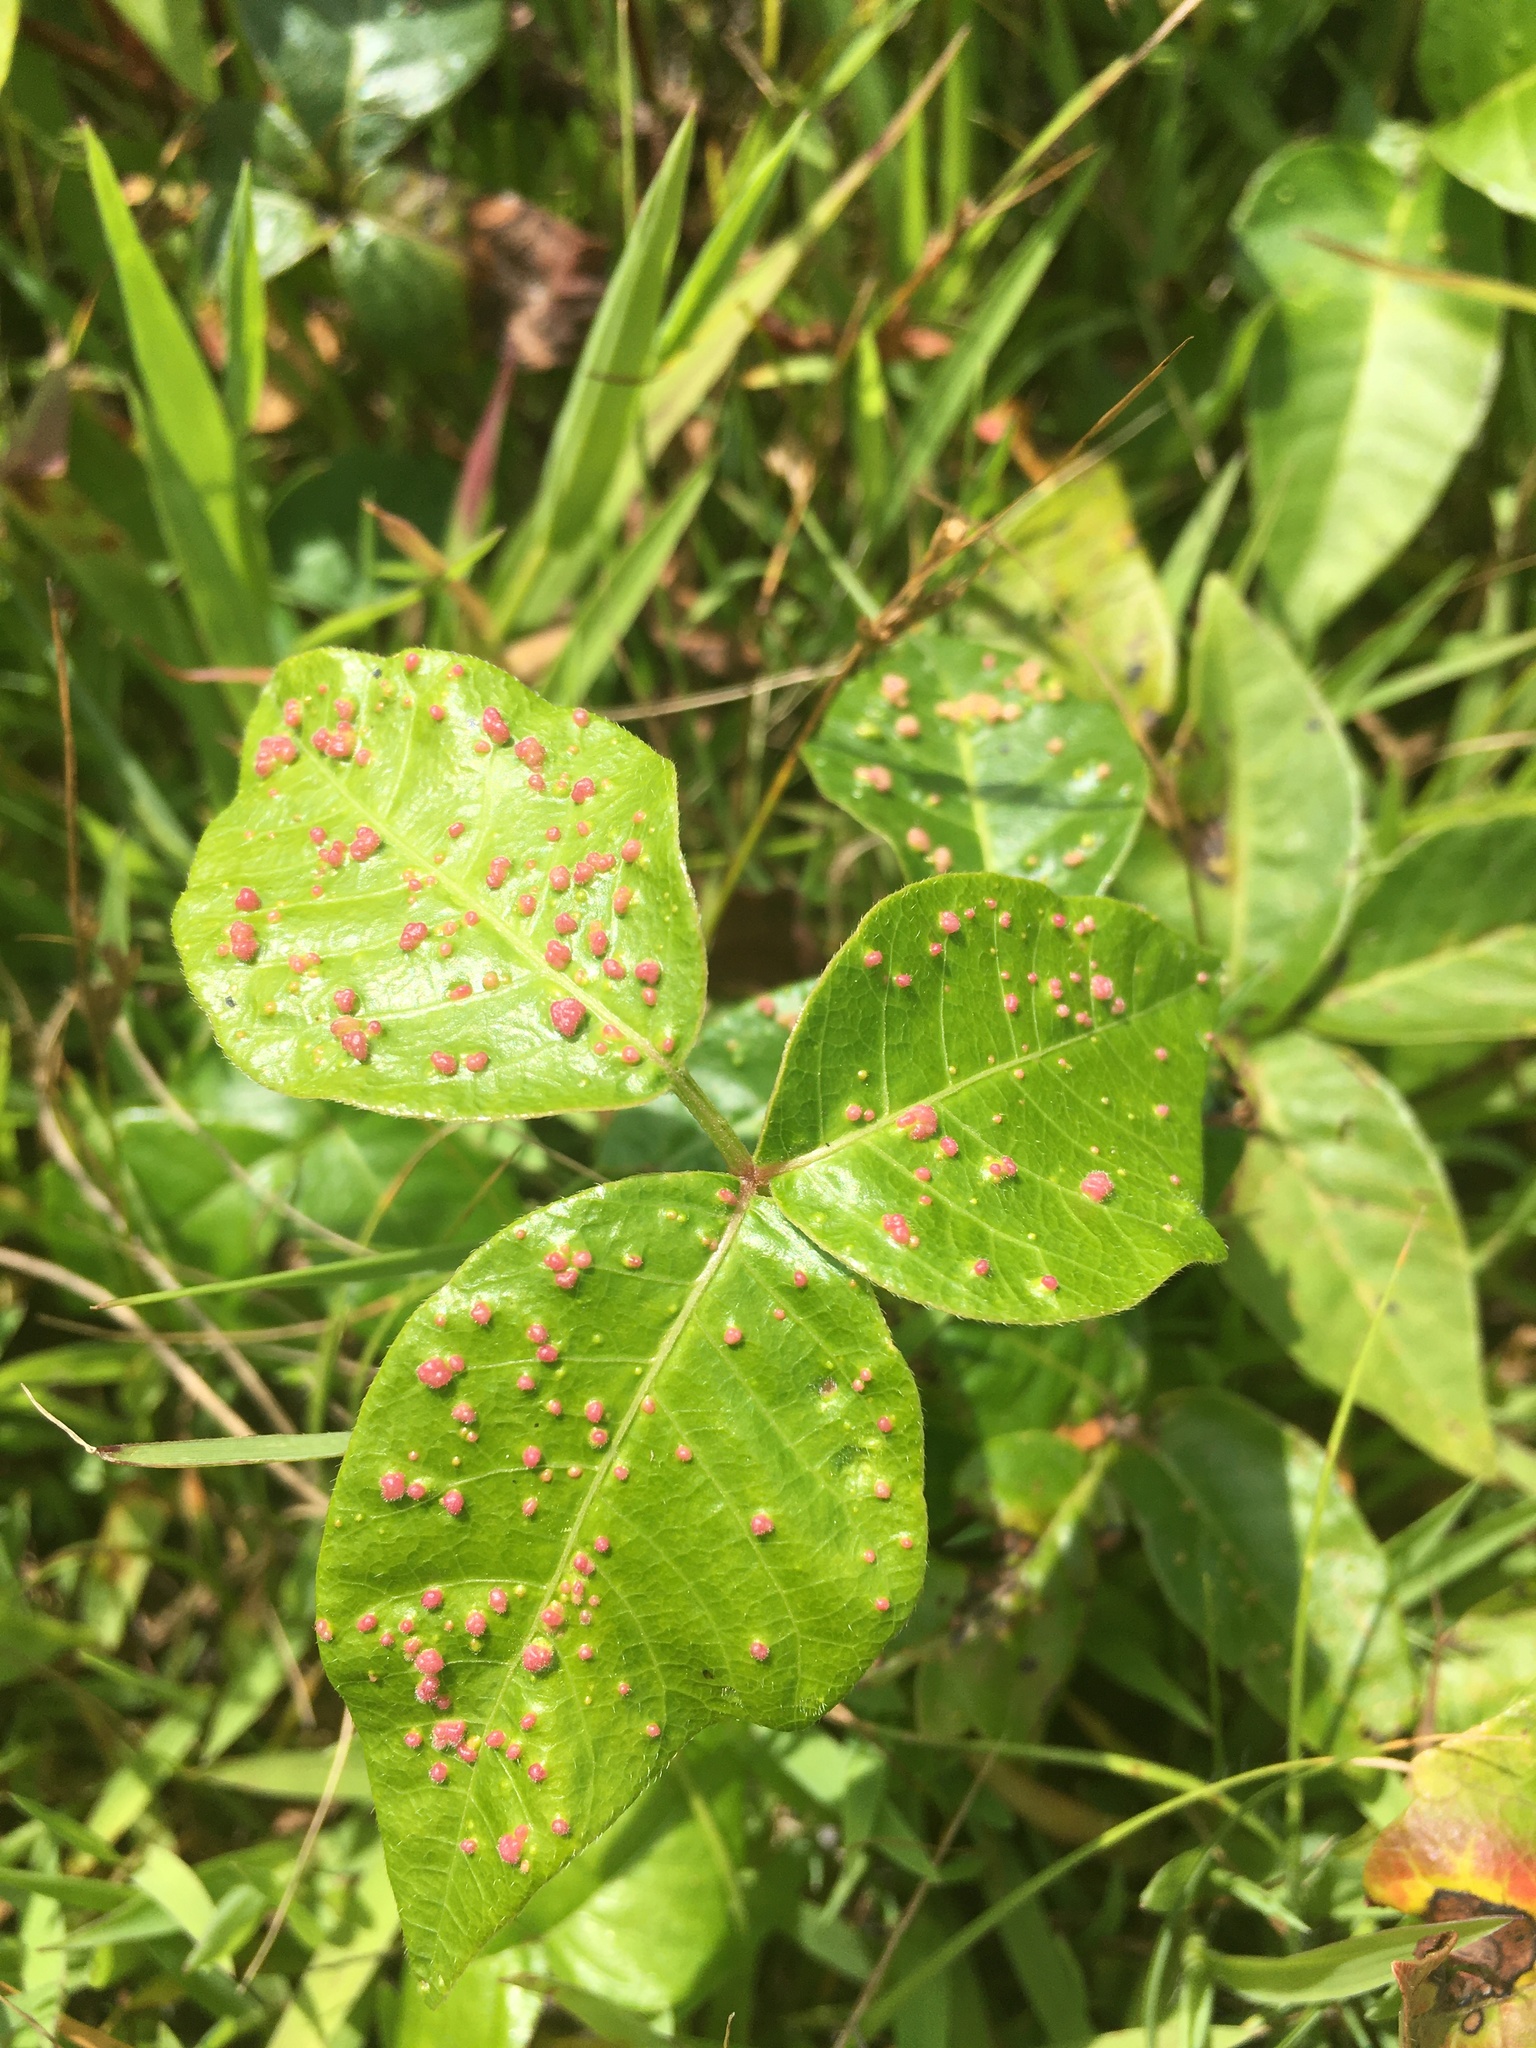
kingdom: Plantae
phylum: Tracheophyta
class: Magnoliopsida
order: Sapindales
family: Anacardiaceae
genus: Toxicodendron
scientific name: Toxicodendron radicans
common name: Poison ivy
